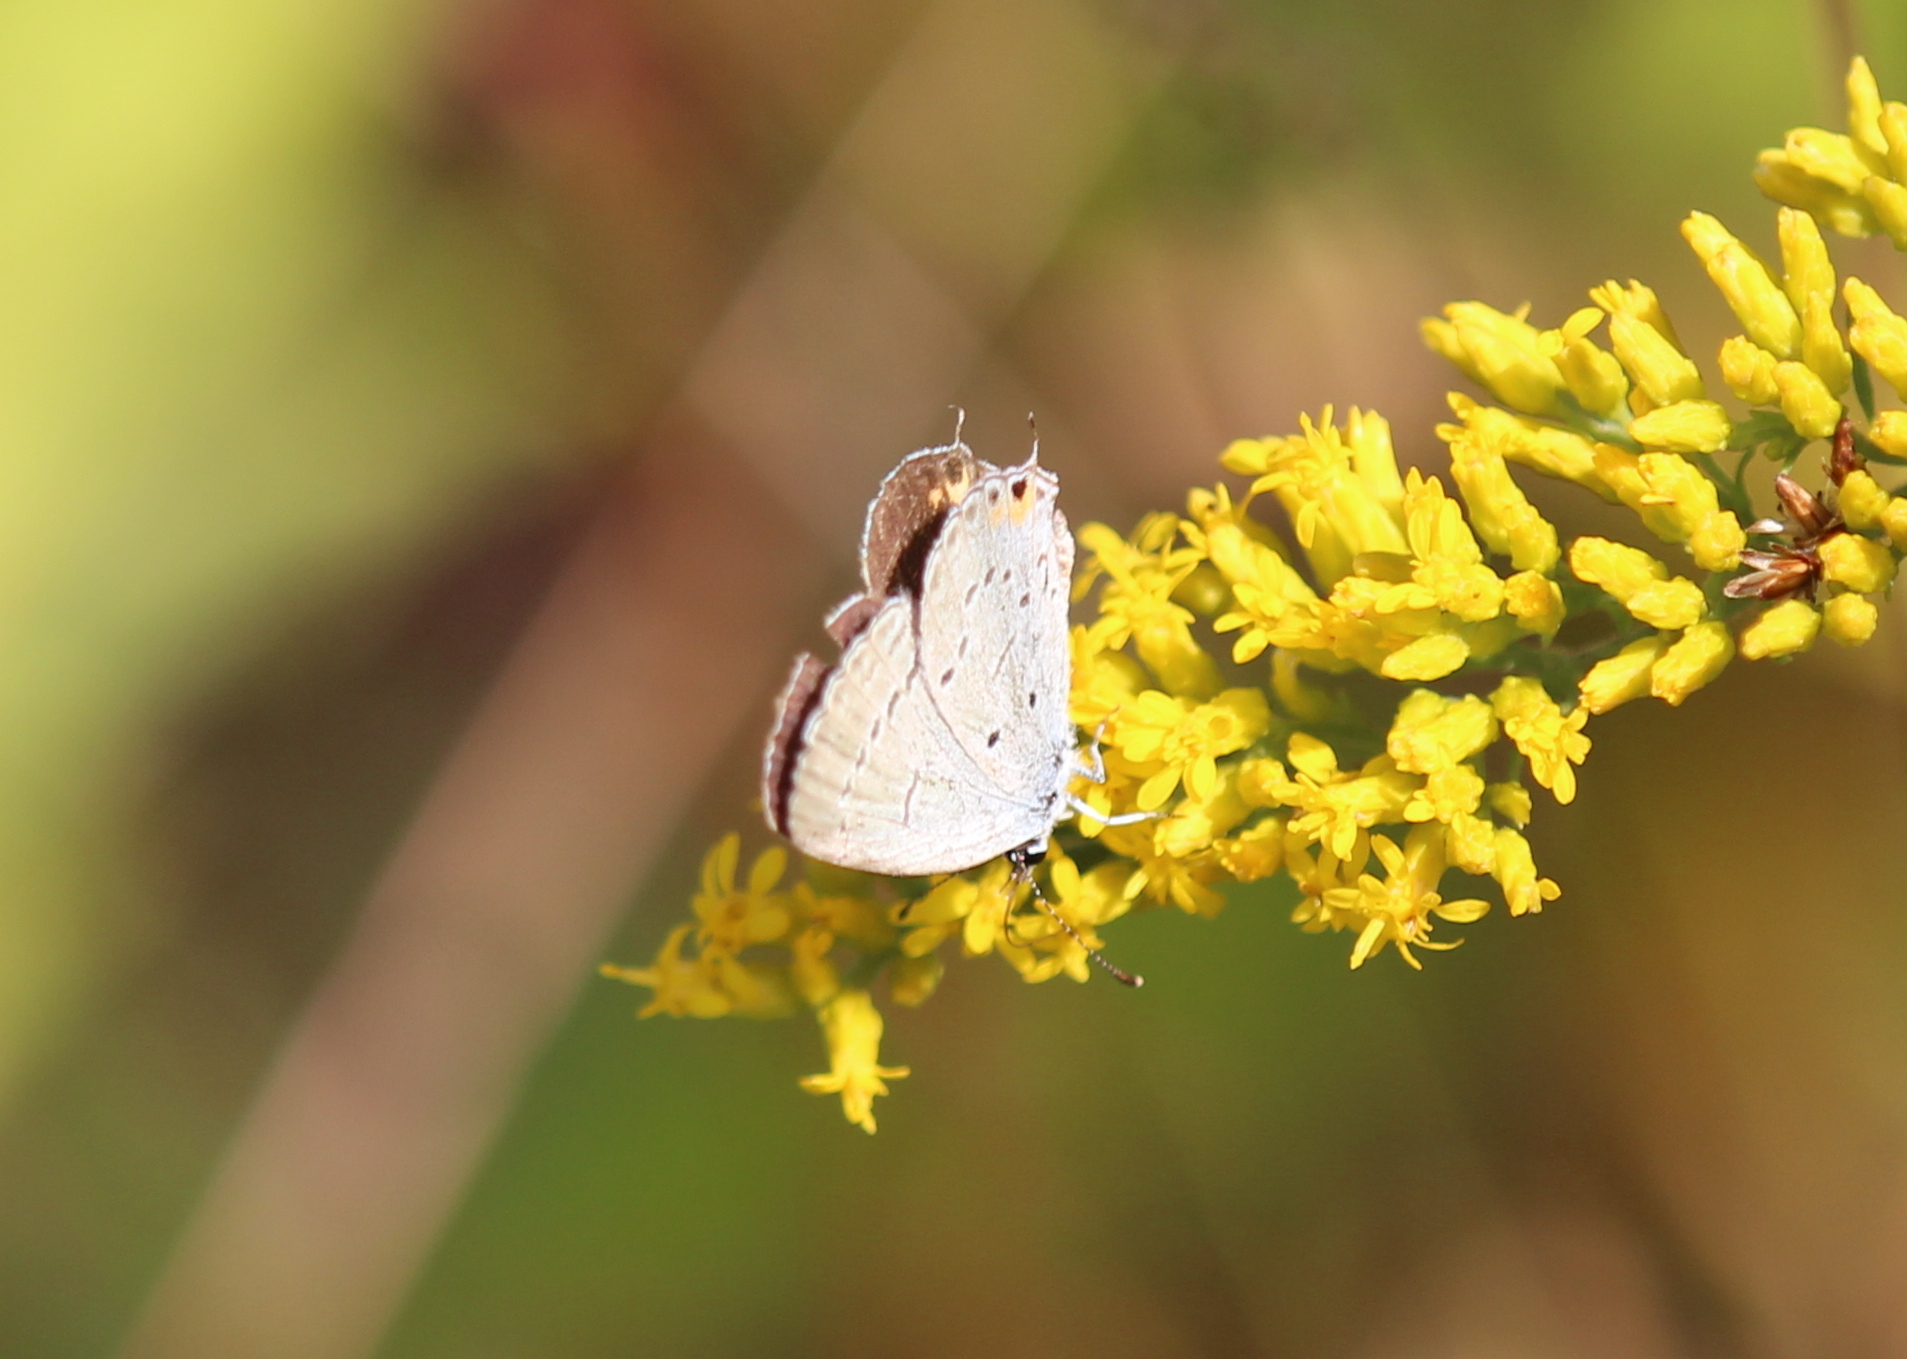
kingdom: Animalia
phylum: Arthropoda
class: Insecta
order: Lepidoptera
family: Lycaenidae
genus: Elkalyce
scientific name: Elkalyce comyntas
